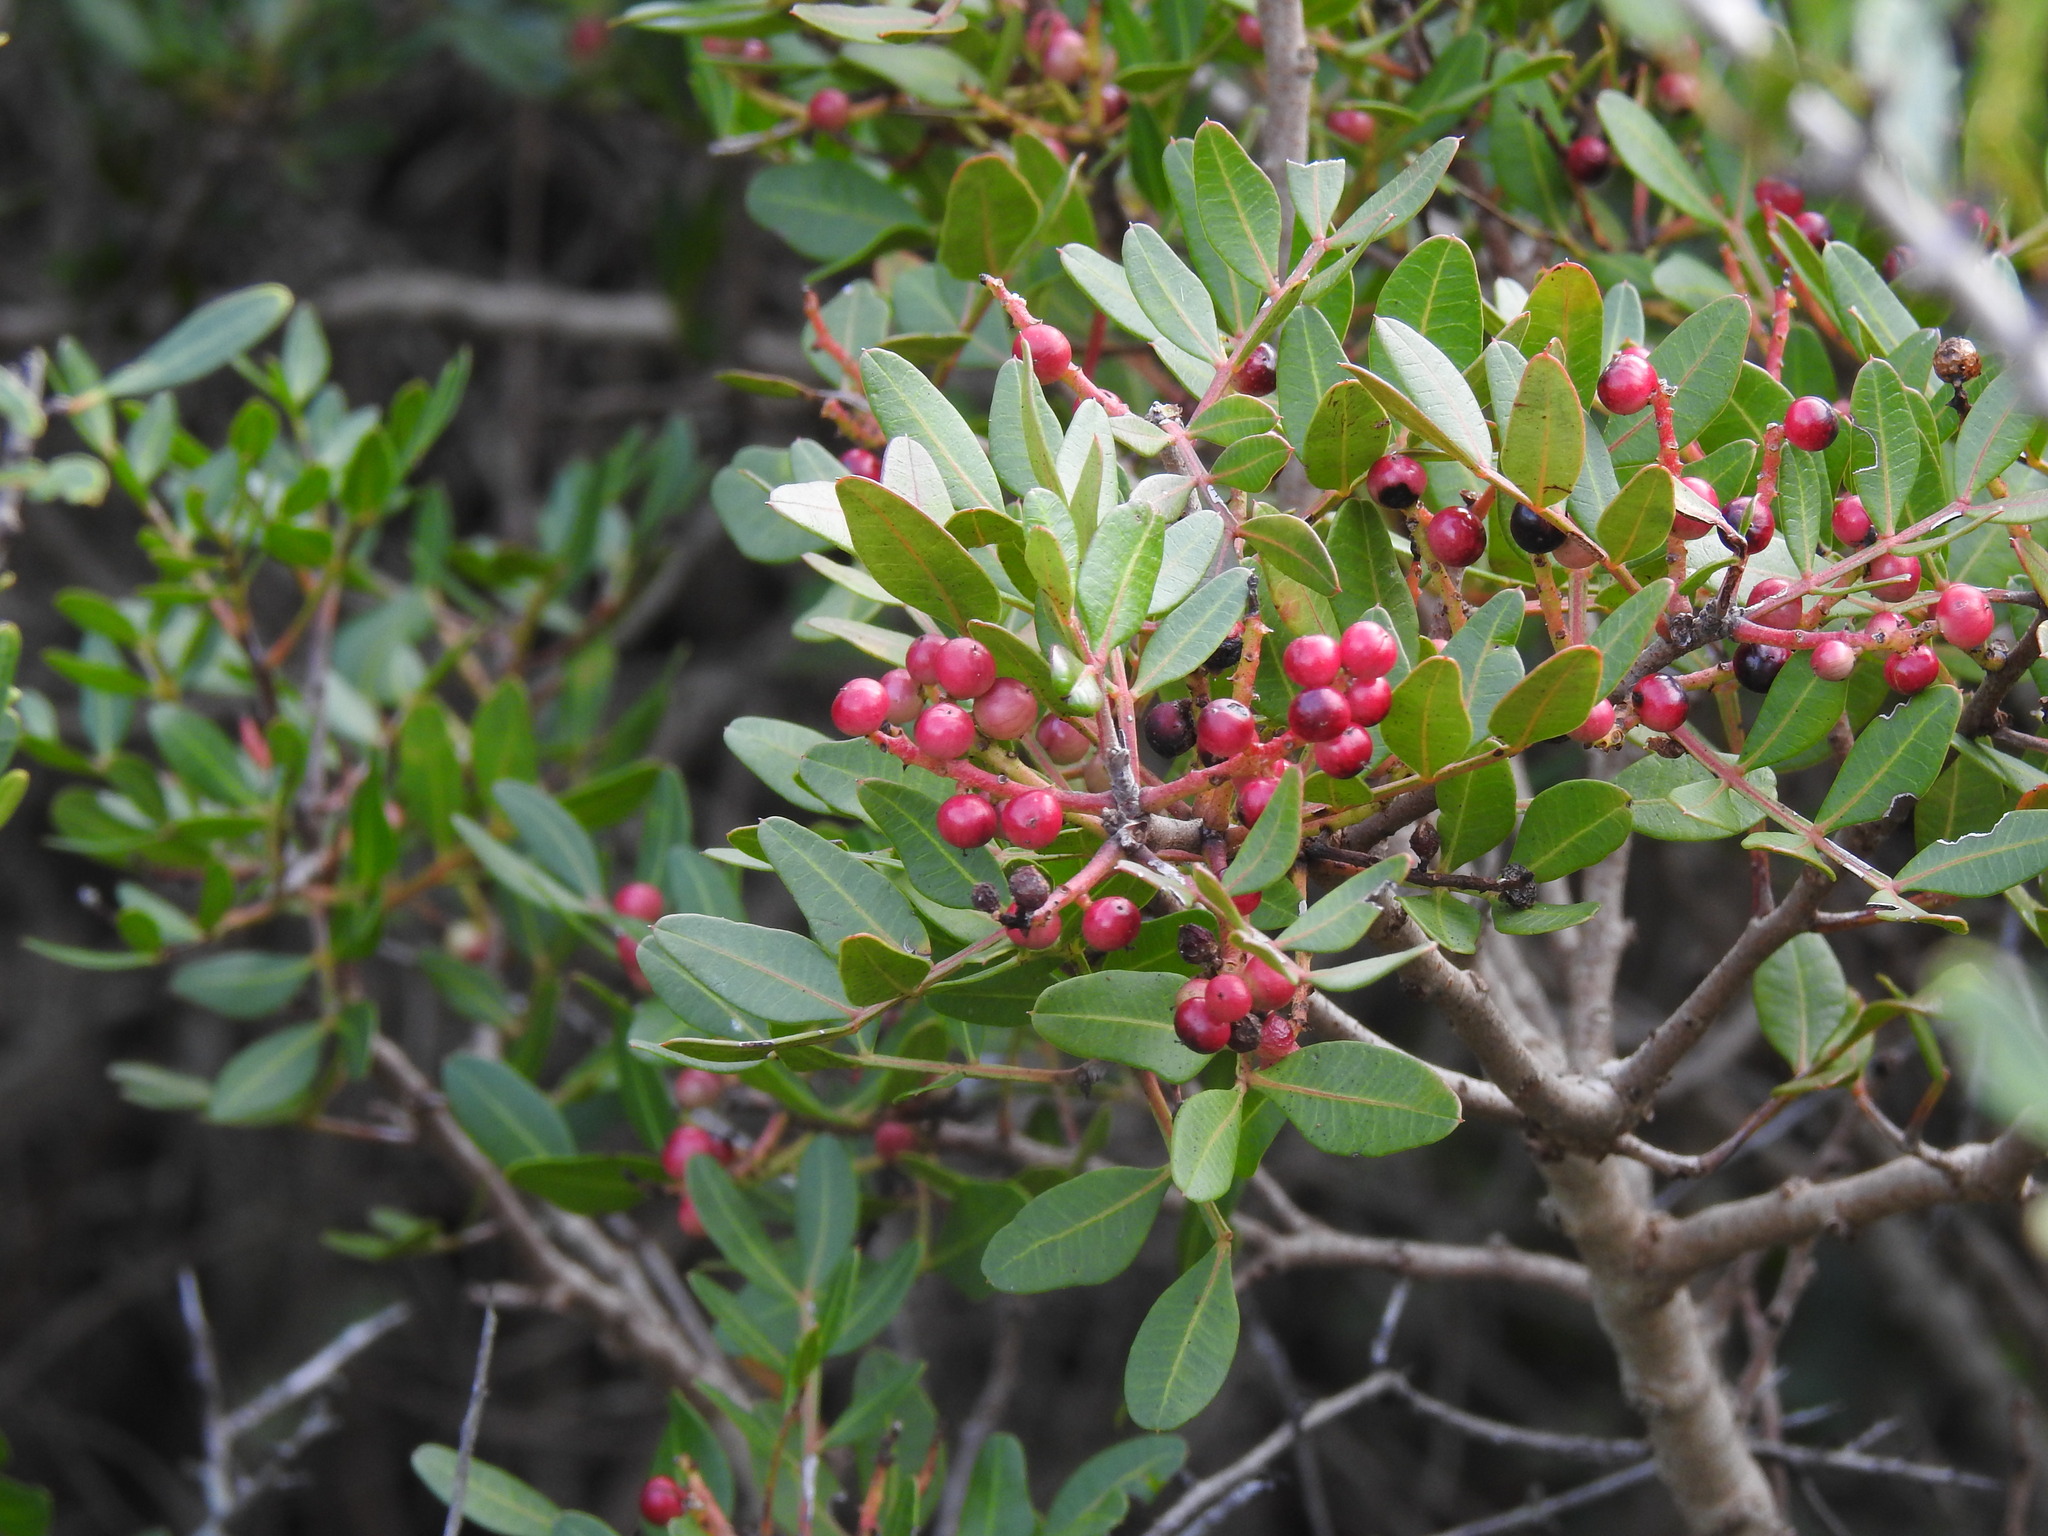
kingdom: Plantae
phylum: Tracheophyta
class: Magnoliopsida
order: Sapindales
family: Anacardiaceae
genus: Pistacia
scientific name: Pistacia lentiscus
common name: Lentisk
